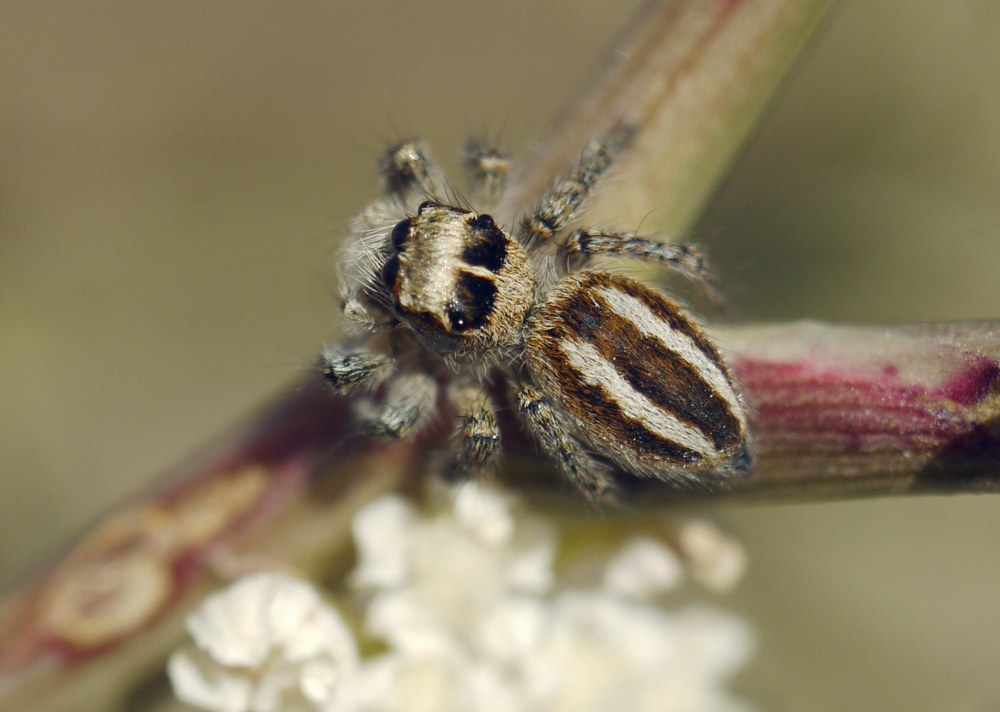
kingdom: Animalia
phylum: Arthropoda
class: Arachnida
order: Araneae
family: Salticidae
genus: Philaeus
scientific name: Philaeus chrysops
